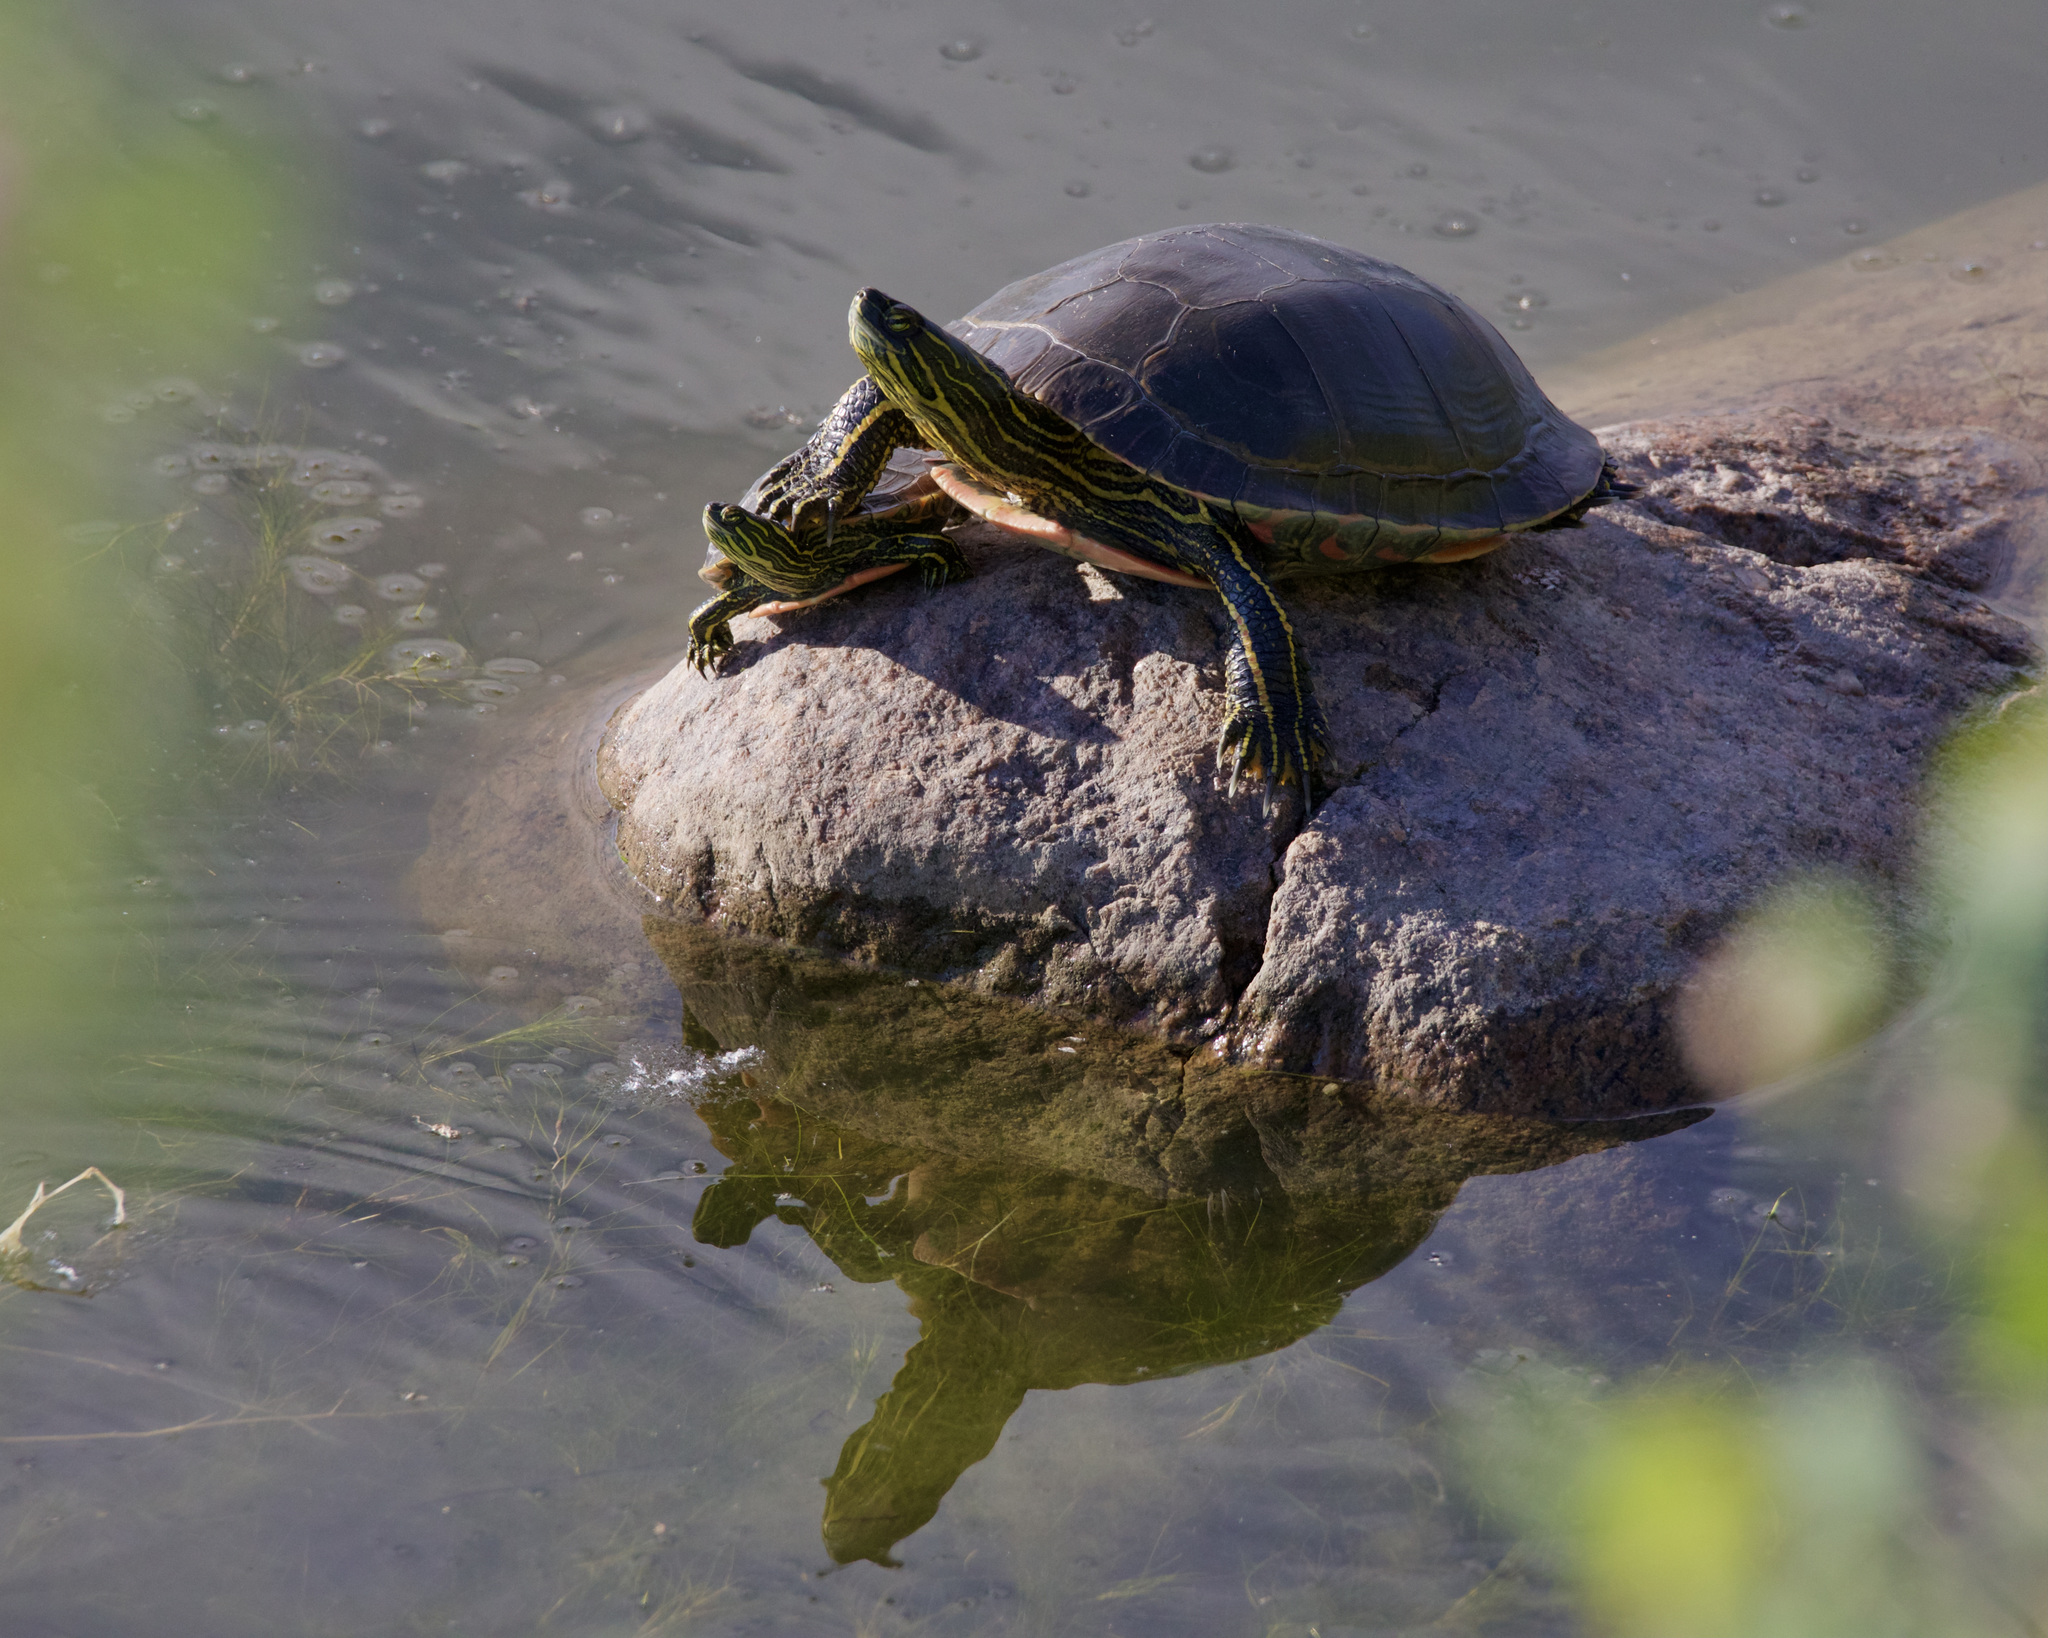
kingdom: Animalia
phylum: Chordata
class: Testudines
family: Emydidae
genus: Chrysemys
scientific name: Chrysemys picta
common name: Painted turtle
